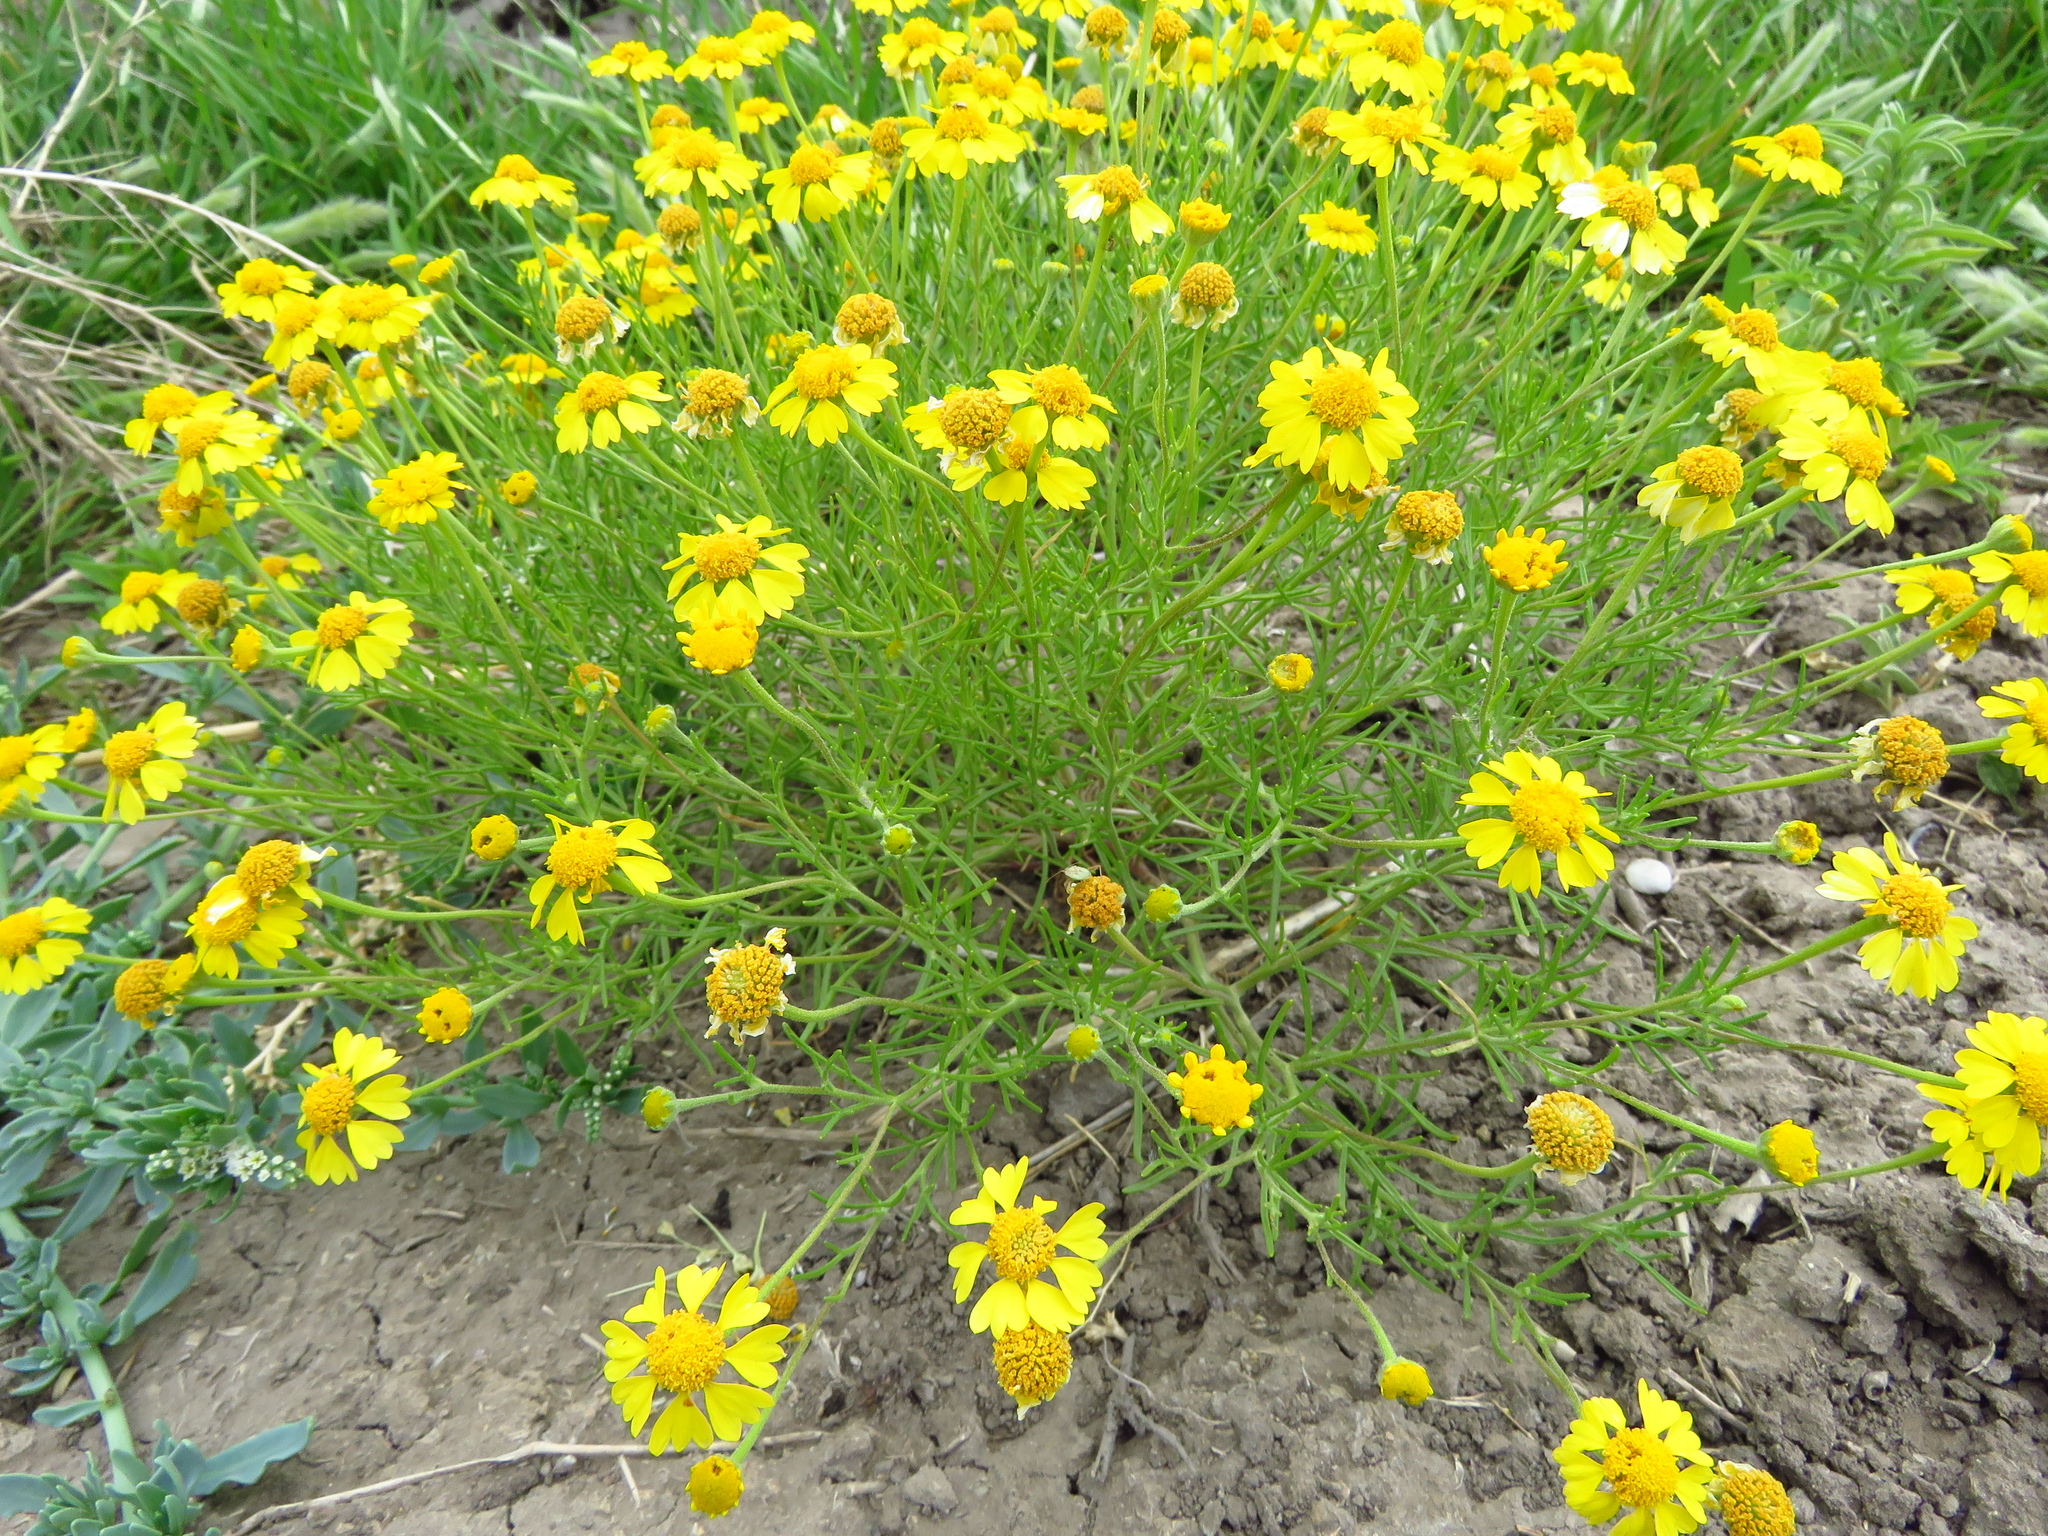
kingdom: Plantae
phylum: Tracheophyta
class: Magnoliopsida
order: Asterales
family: Asteraceae
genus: Hymenoxys
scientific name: Hymenoxys odorata
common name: Bitter rubberweed
